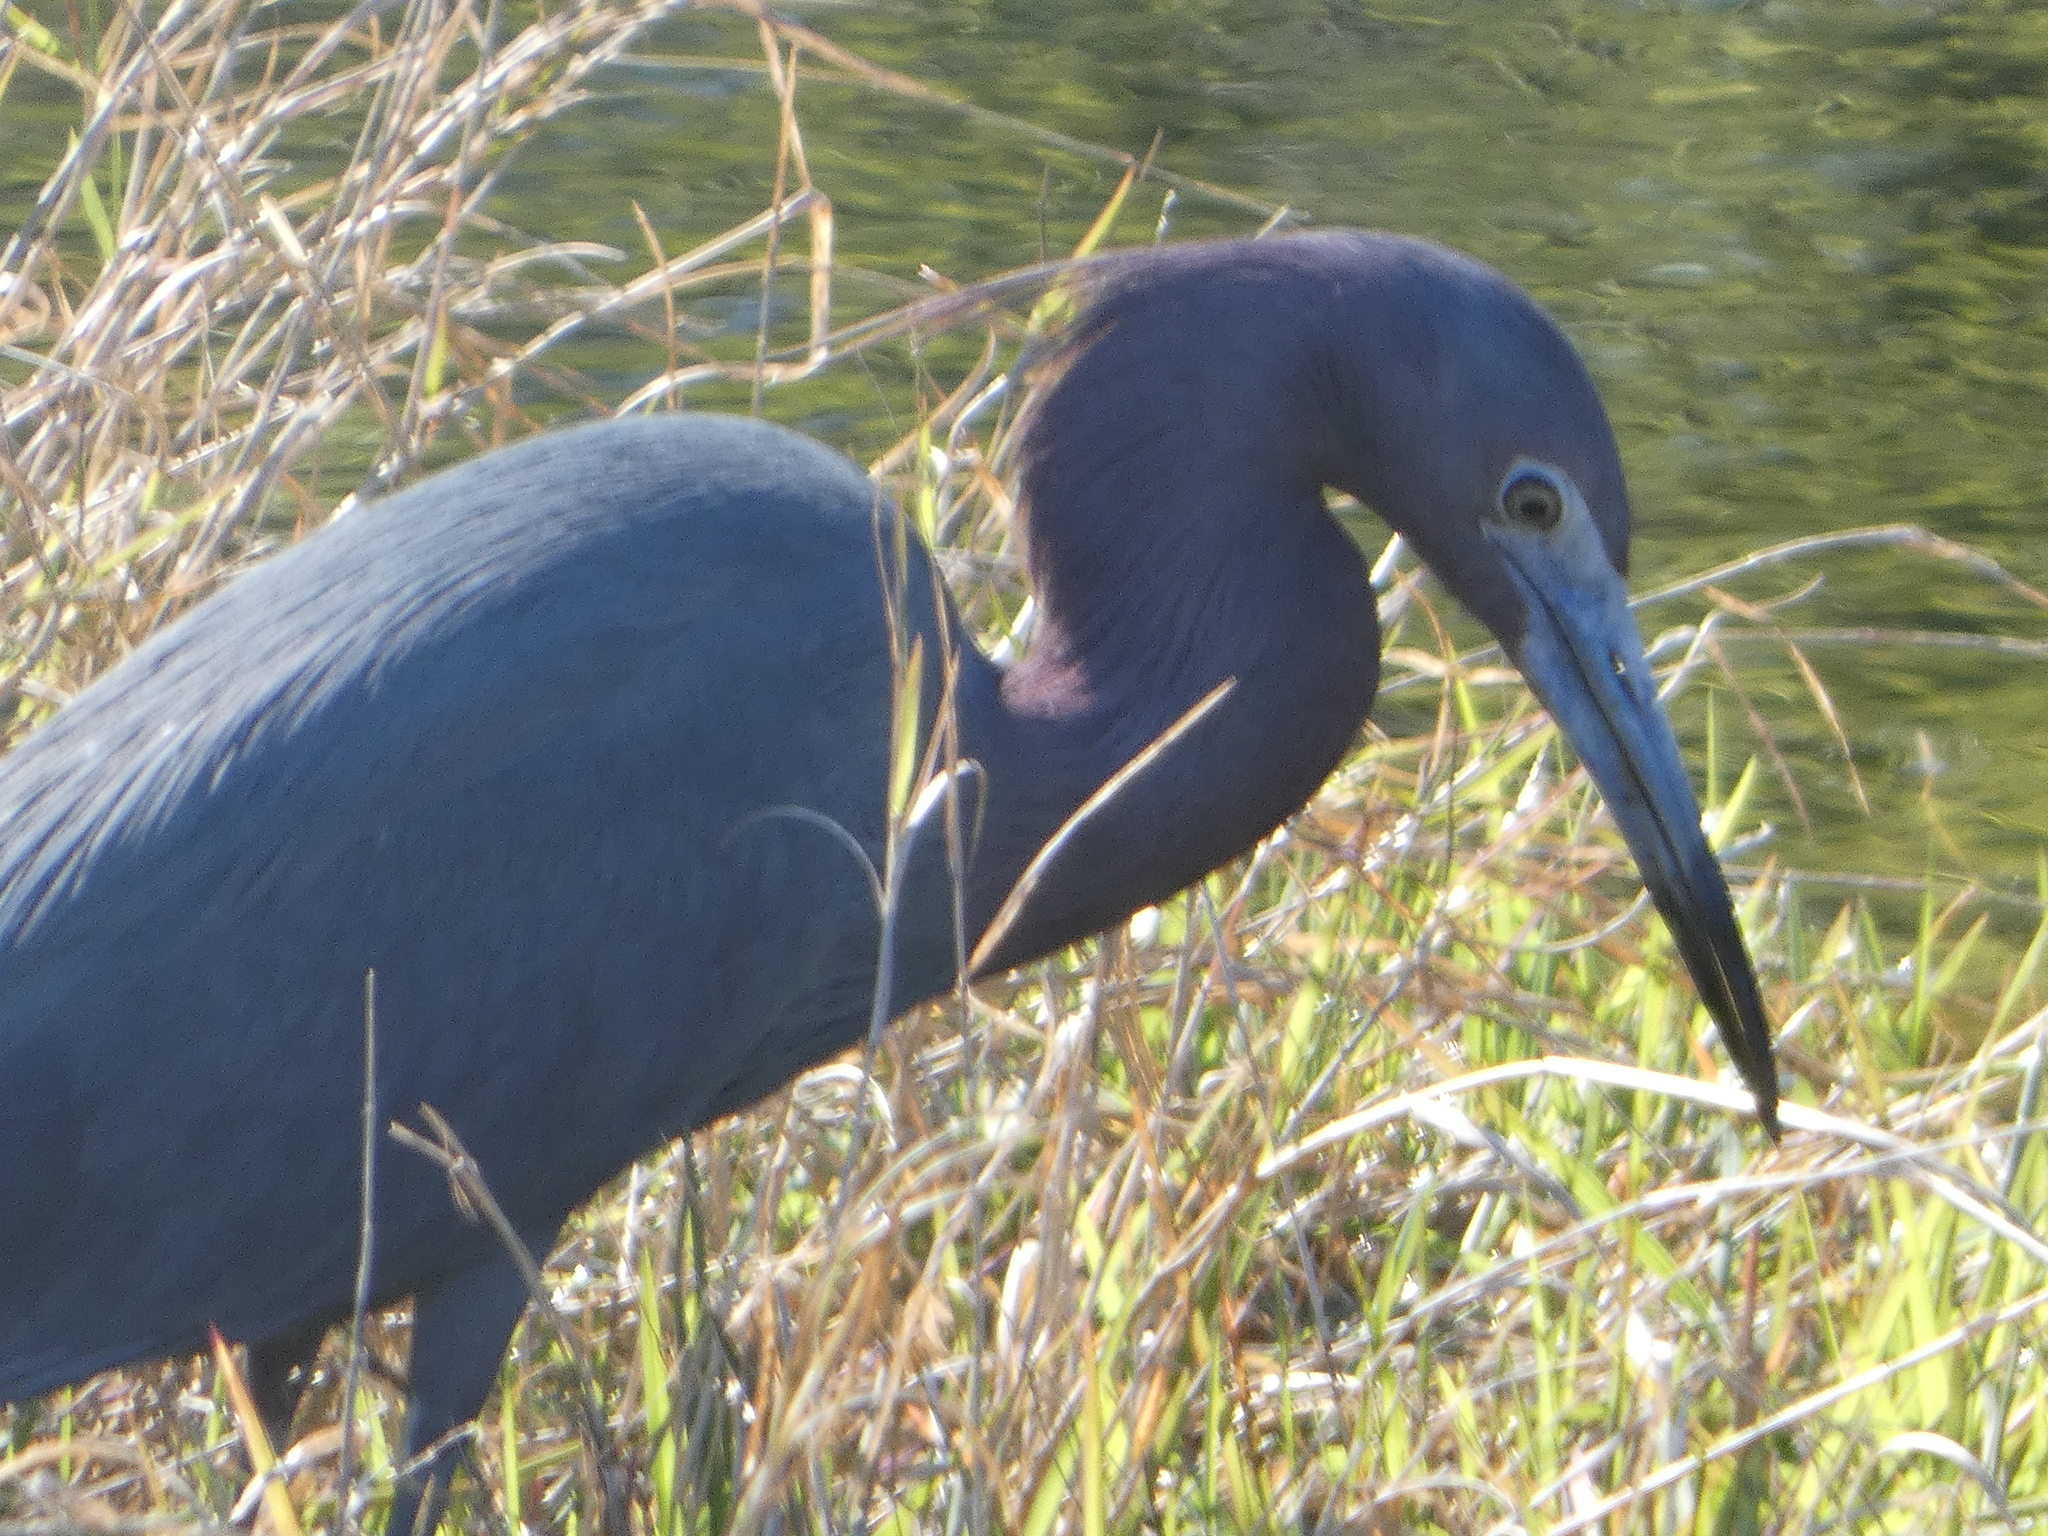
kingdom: Animalia
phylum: Chordata
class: Aves
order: Pelecaniformes
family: Ardeidae
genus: Egretta
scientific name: Egretta caerulea
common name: Little blue heron
